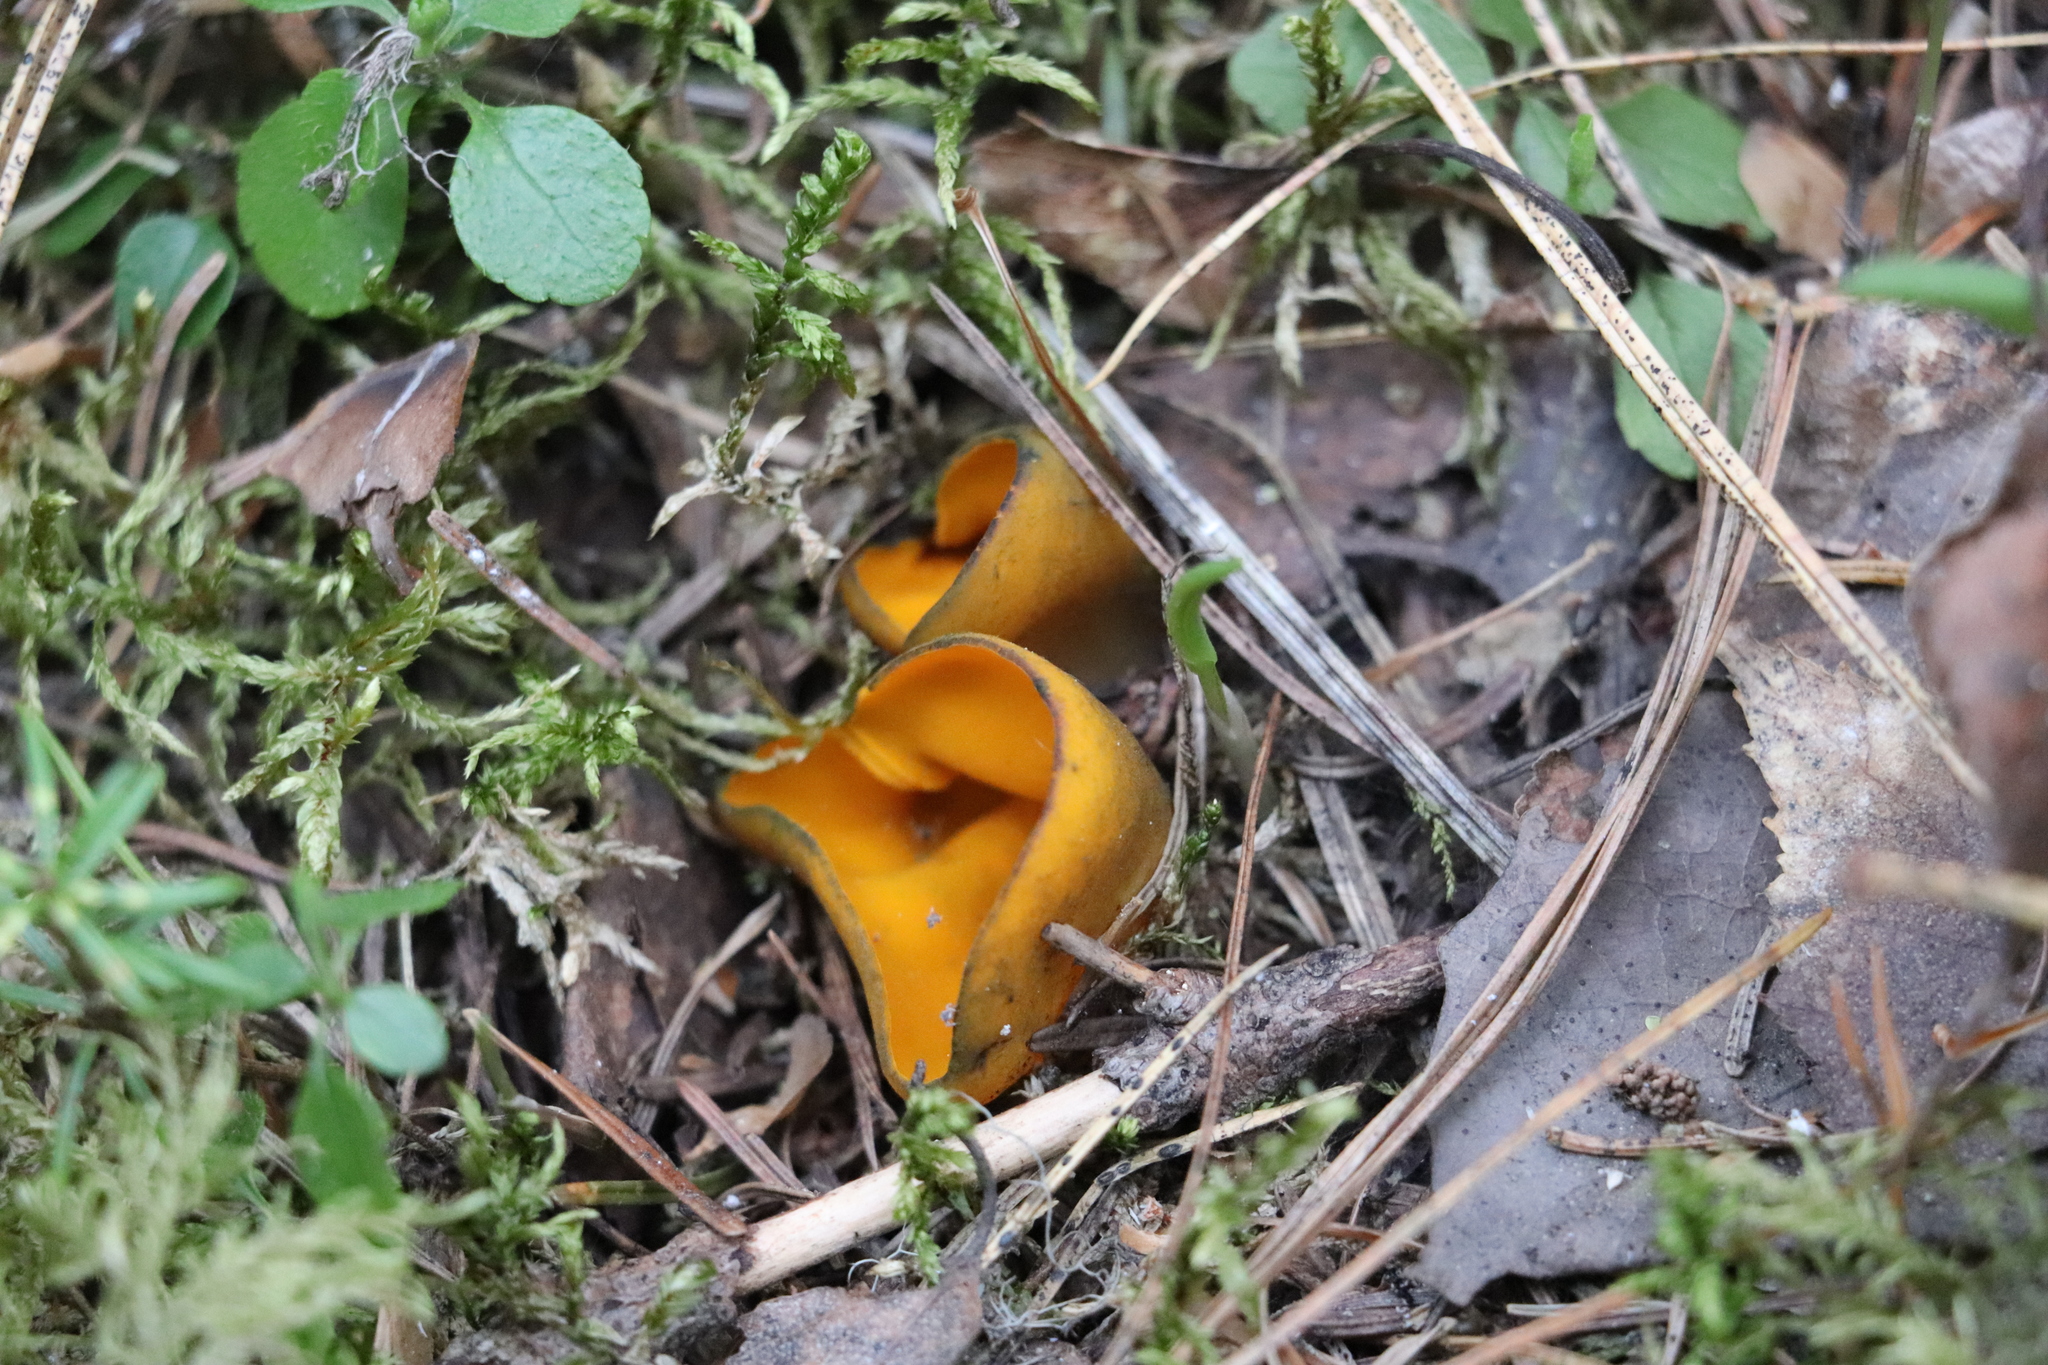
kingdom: Fungi
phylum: Ascomycota
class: Pezizomycetes
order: Pezizales
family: Caloscyphaceae
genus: Caloscypha
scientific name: Caloscypha fulgens
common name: Golden cup
